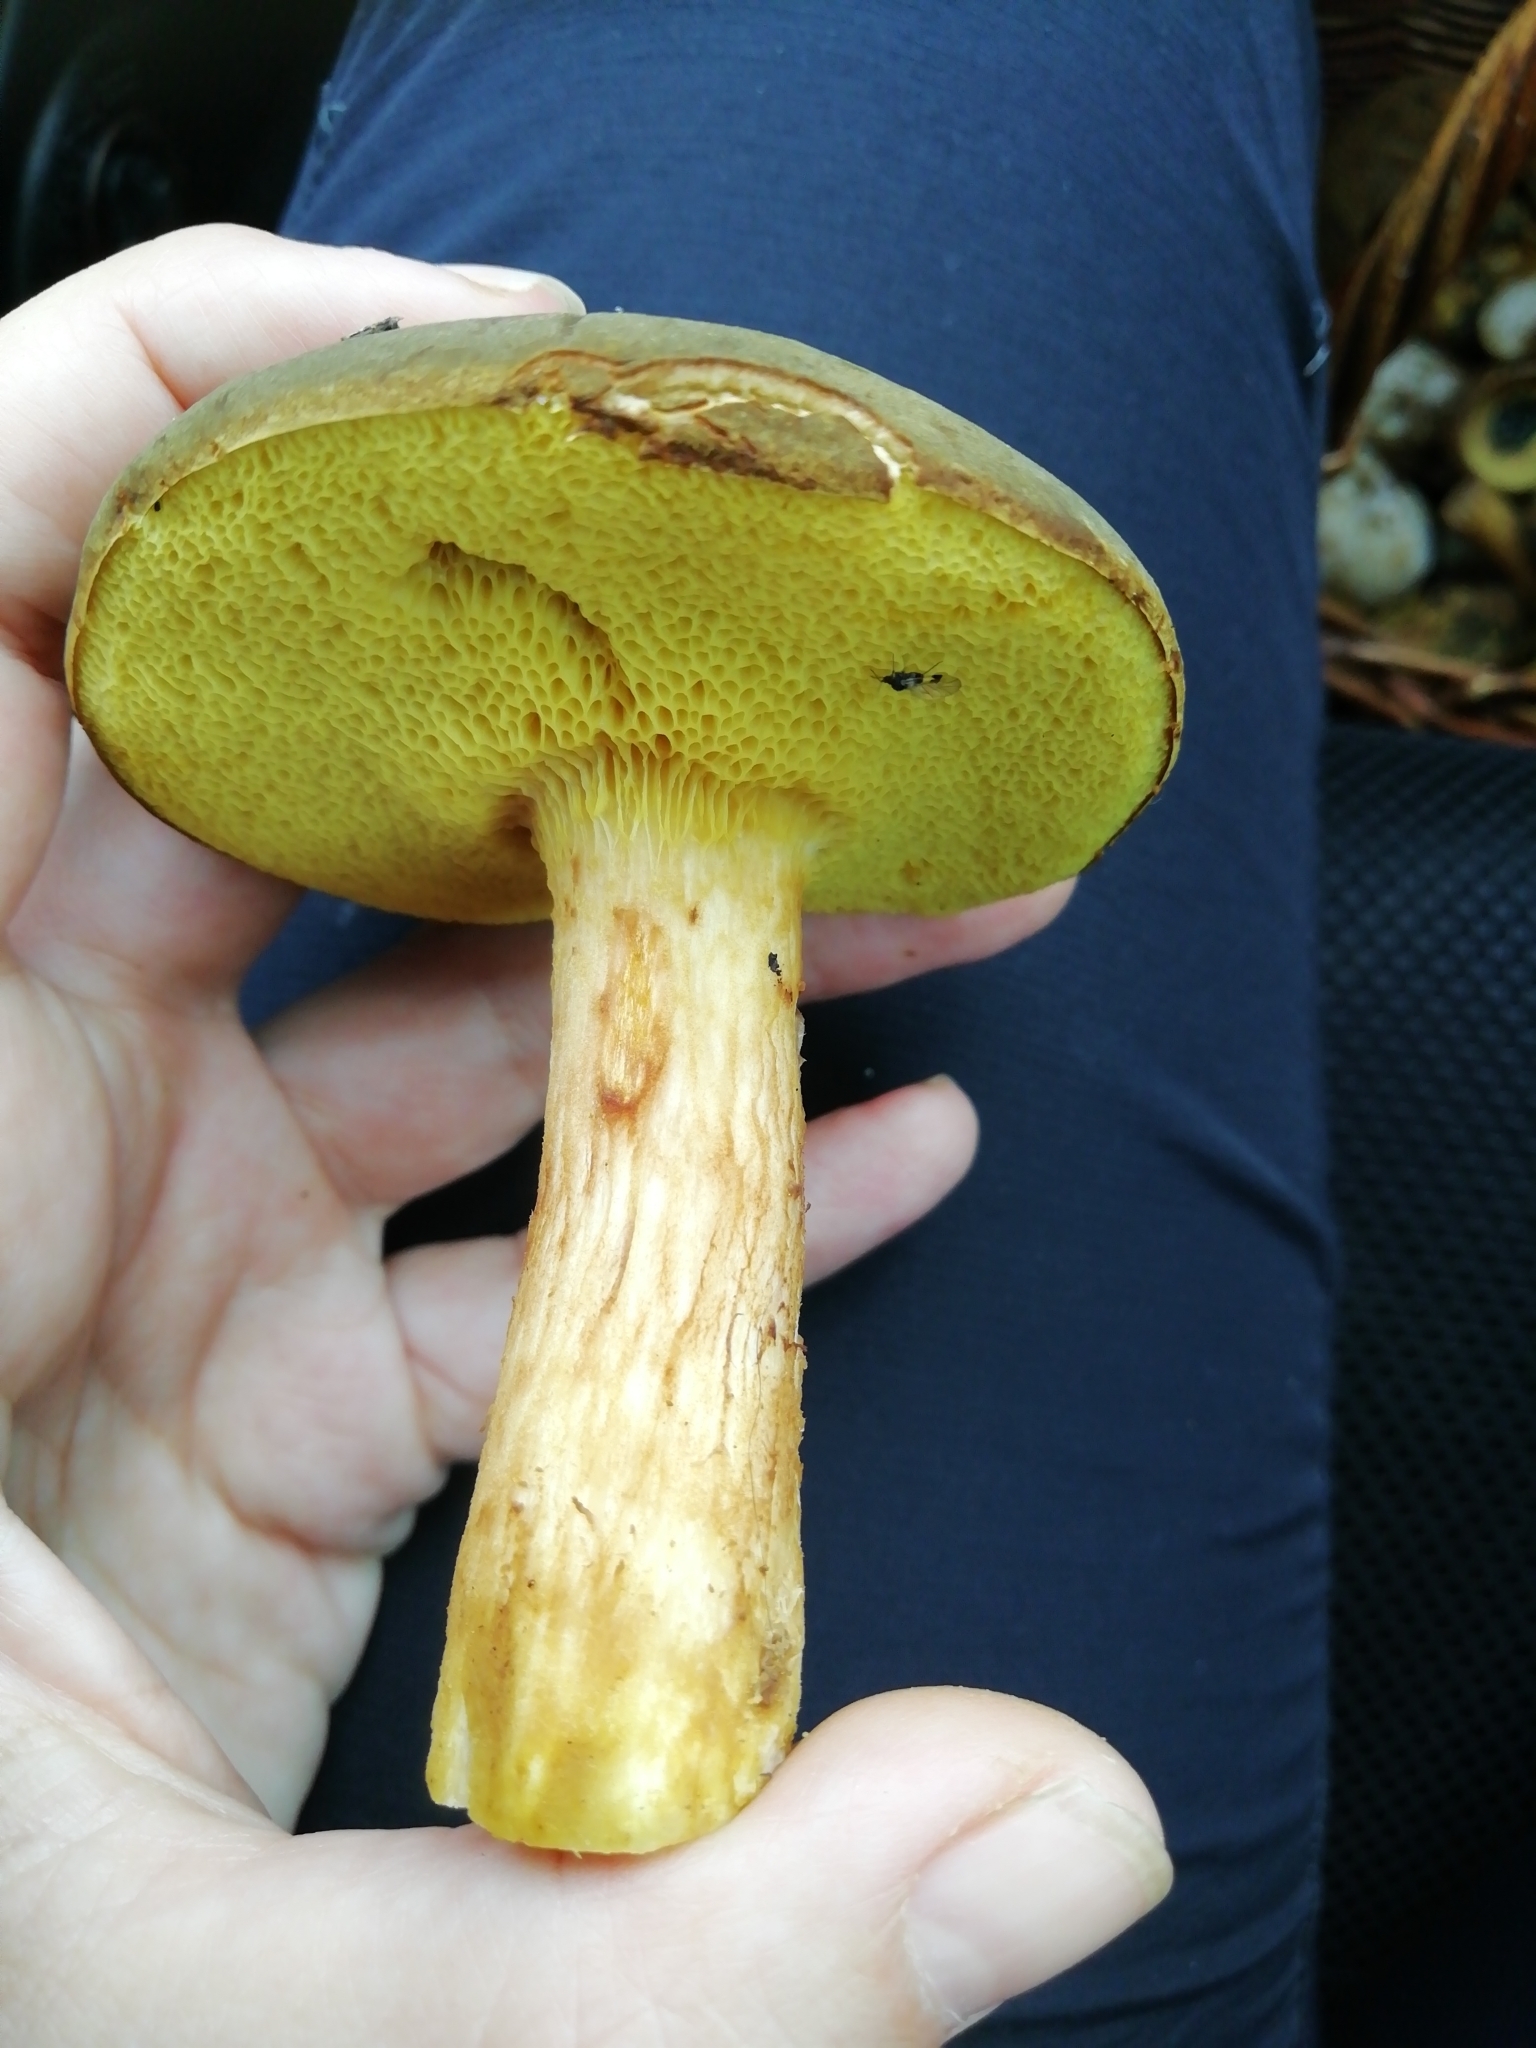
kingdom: Fungi
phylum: Basidiomycota
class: Agaricomycetes
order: Boletales
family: Boletaceae
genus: Xerocomus
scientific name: Xerocomus ferrugineus
